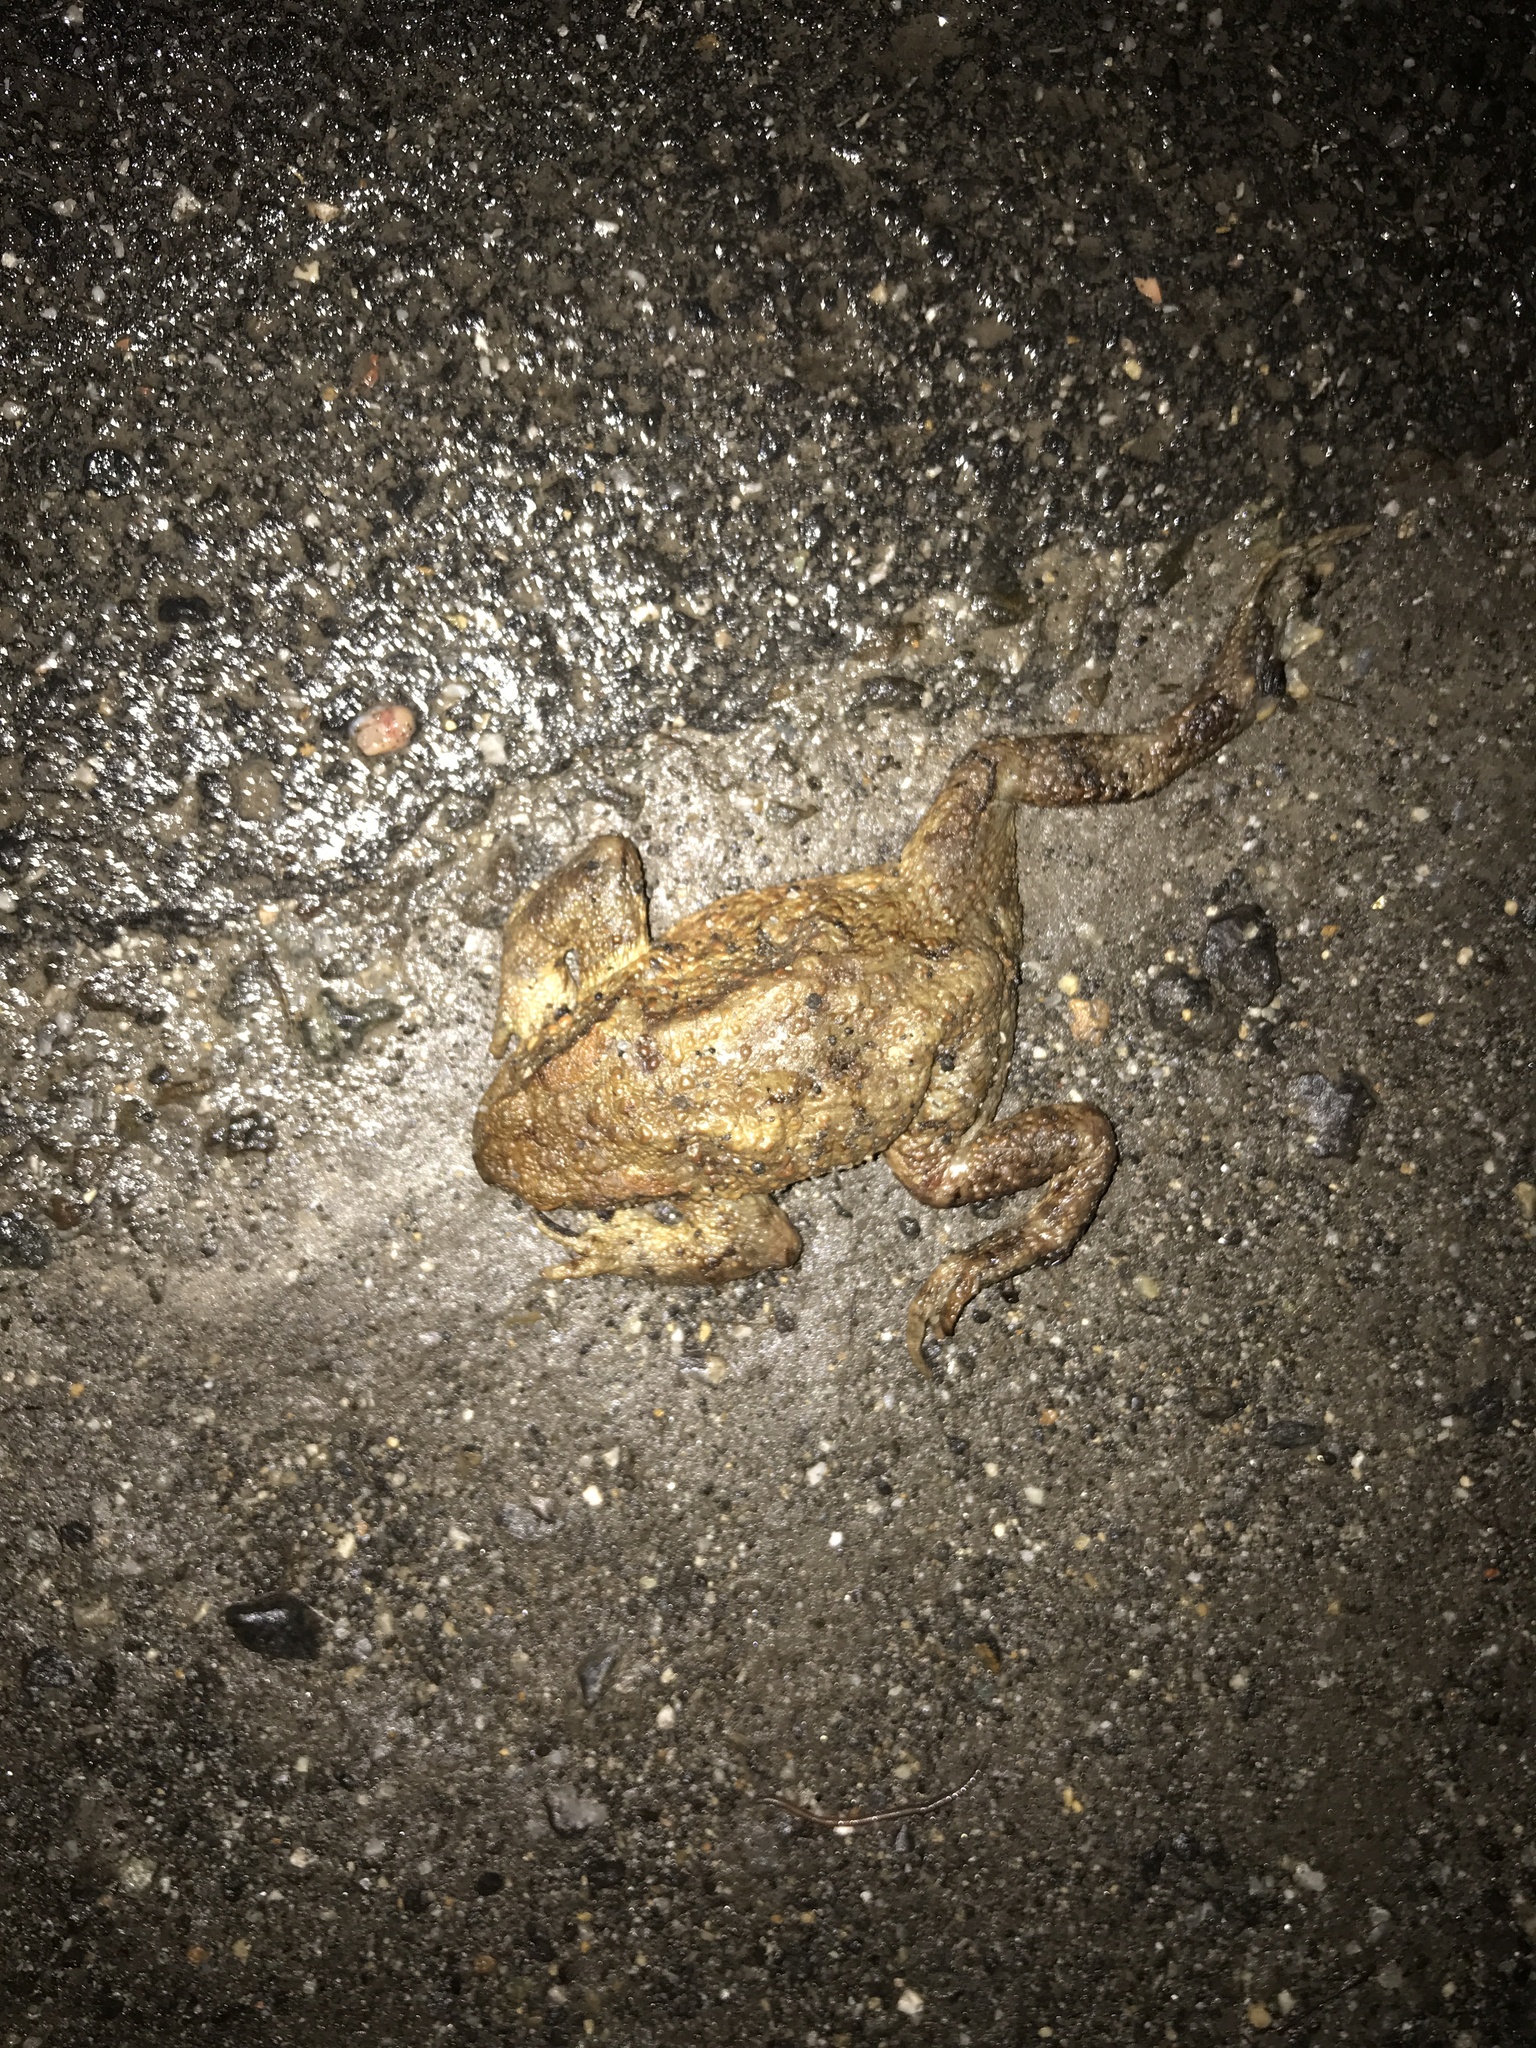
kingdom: Animalia
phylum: Chordata
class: Amphibia
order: Anura
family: Bufonidae
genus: Bufo
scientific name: Bufo bufo
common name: Common toad
